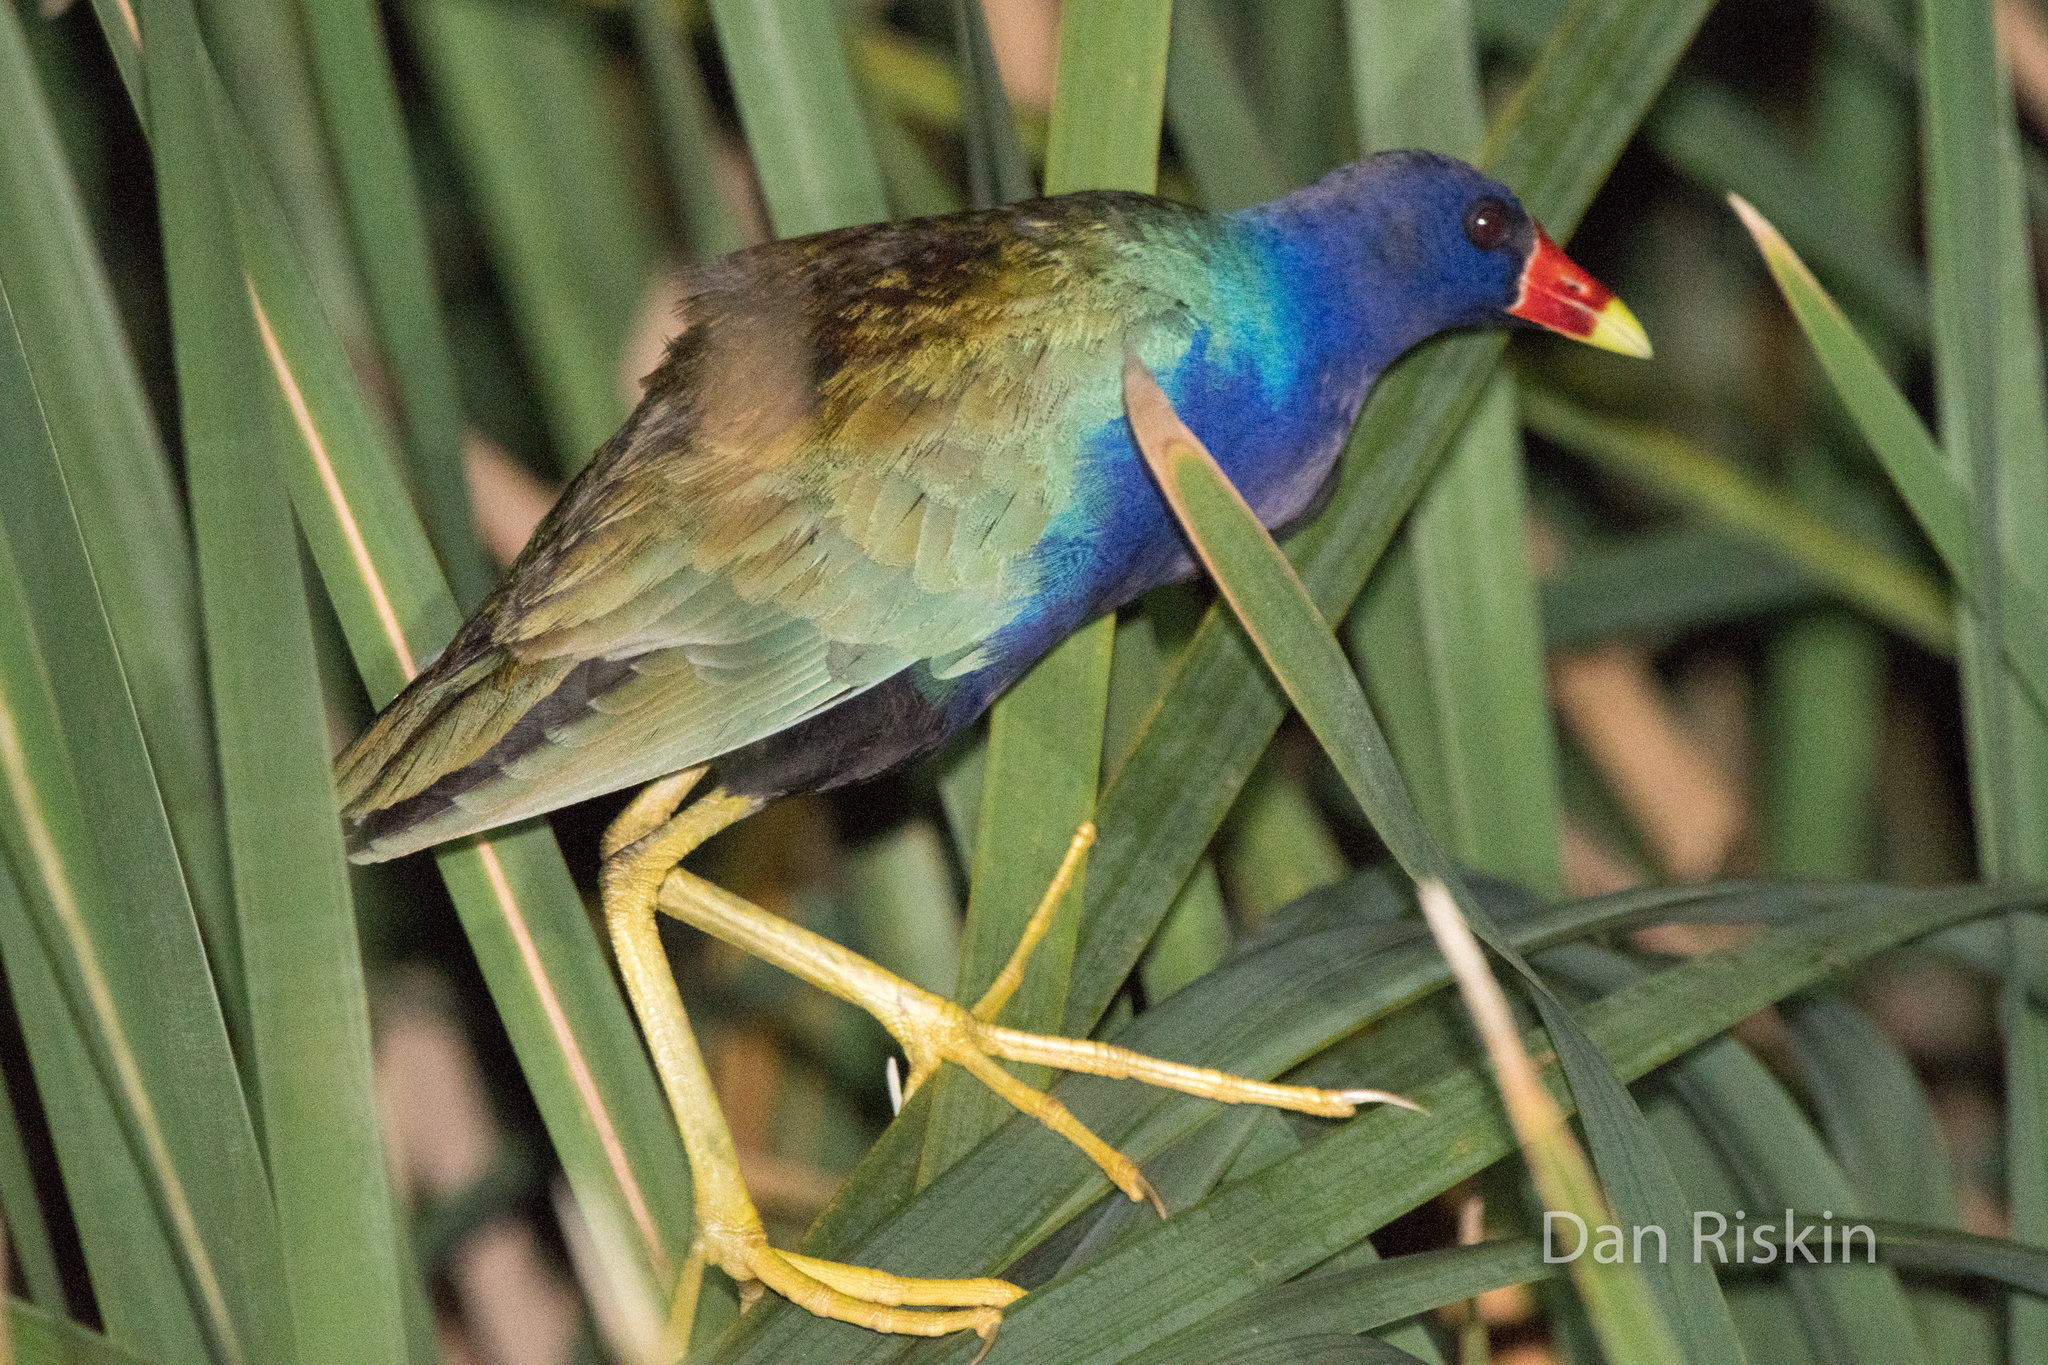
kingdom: Animalia
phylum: Chordata
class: Aves
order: Gruiformes
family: Rallidae
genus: Porphyrio
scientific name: Porphyrio martinica
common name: Purple gallinule
